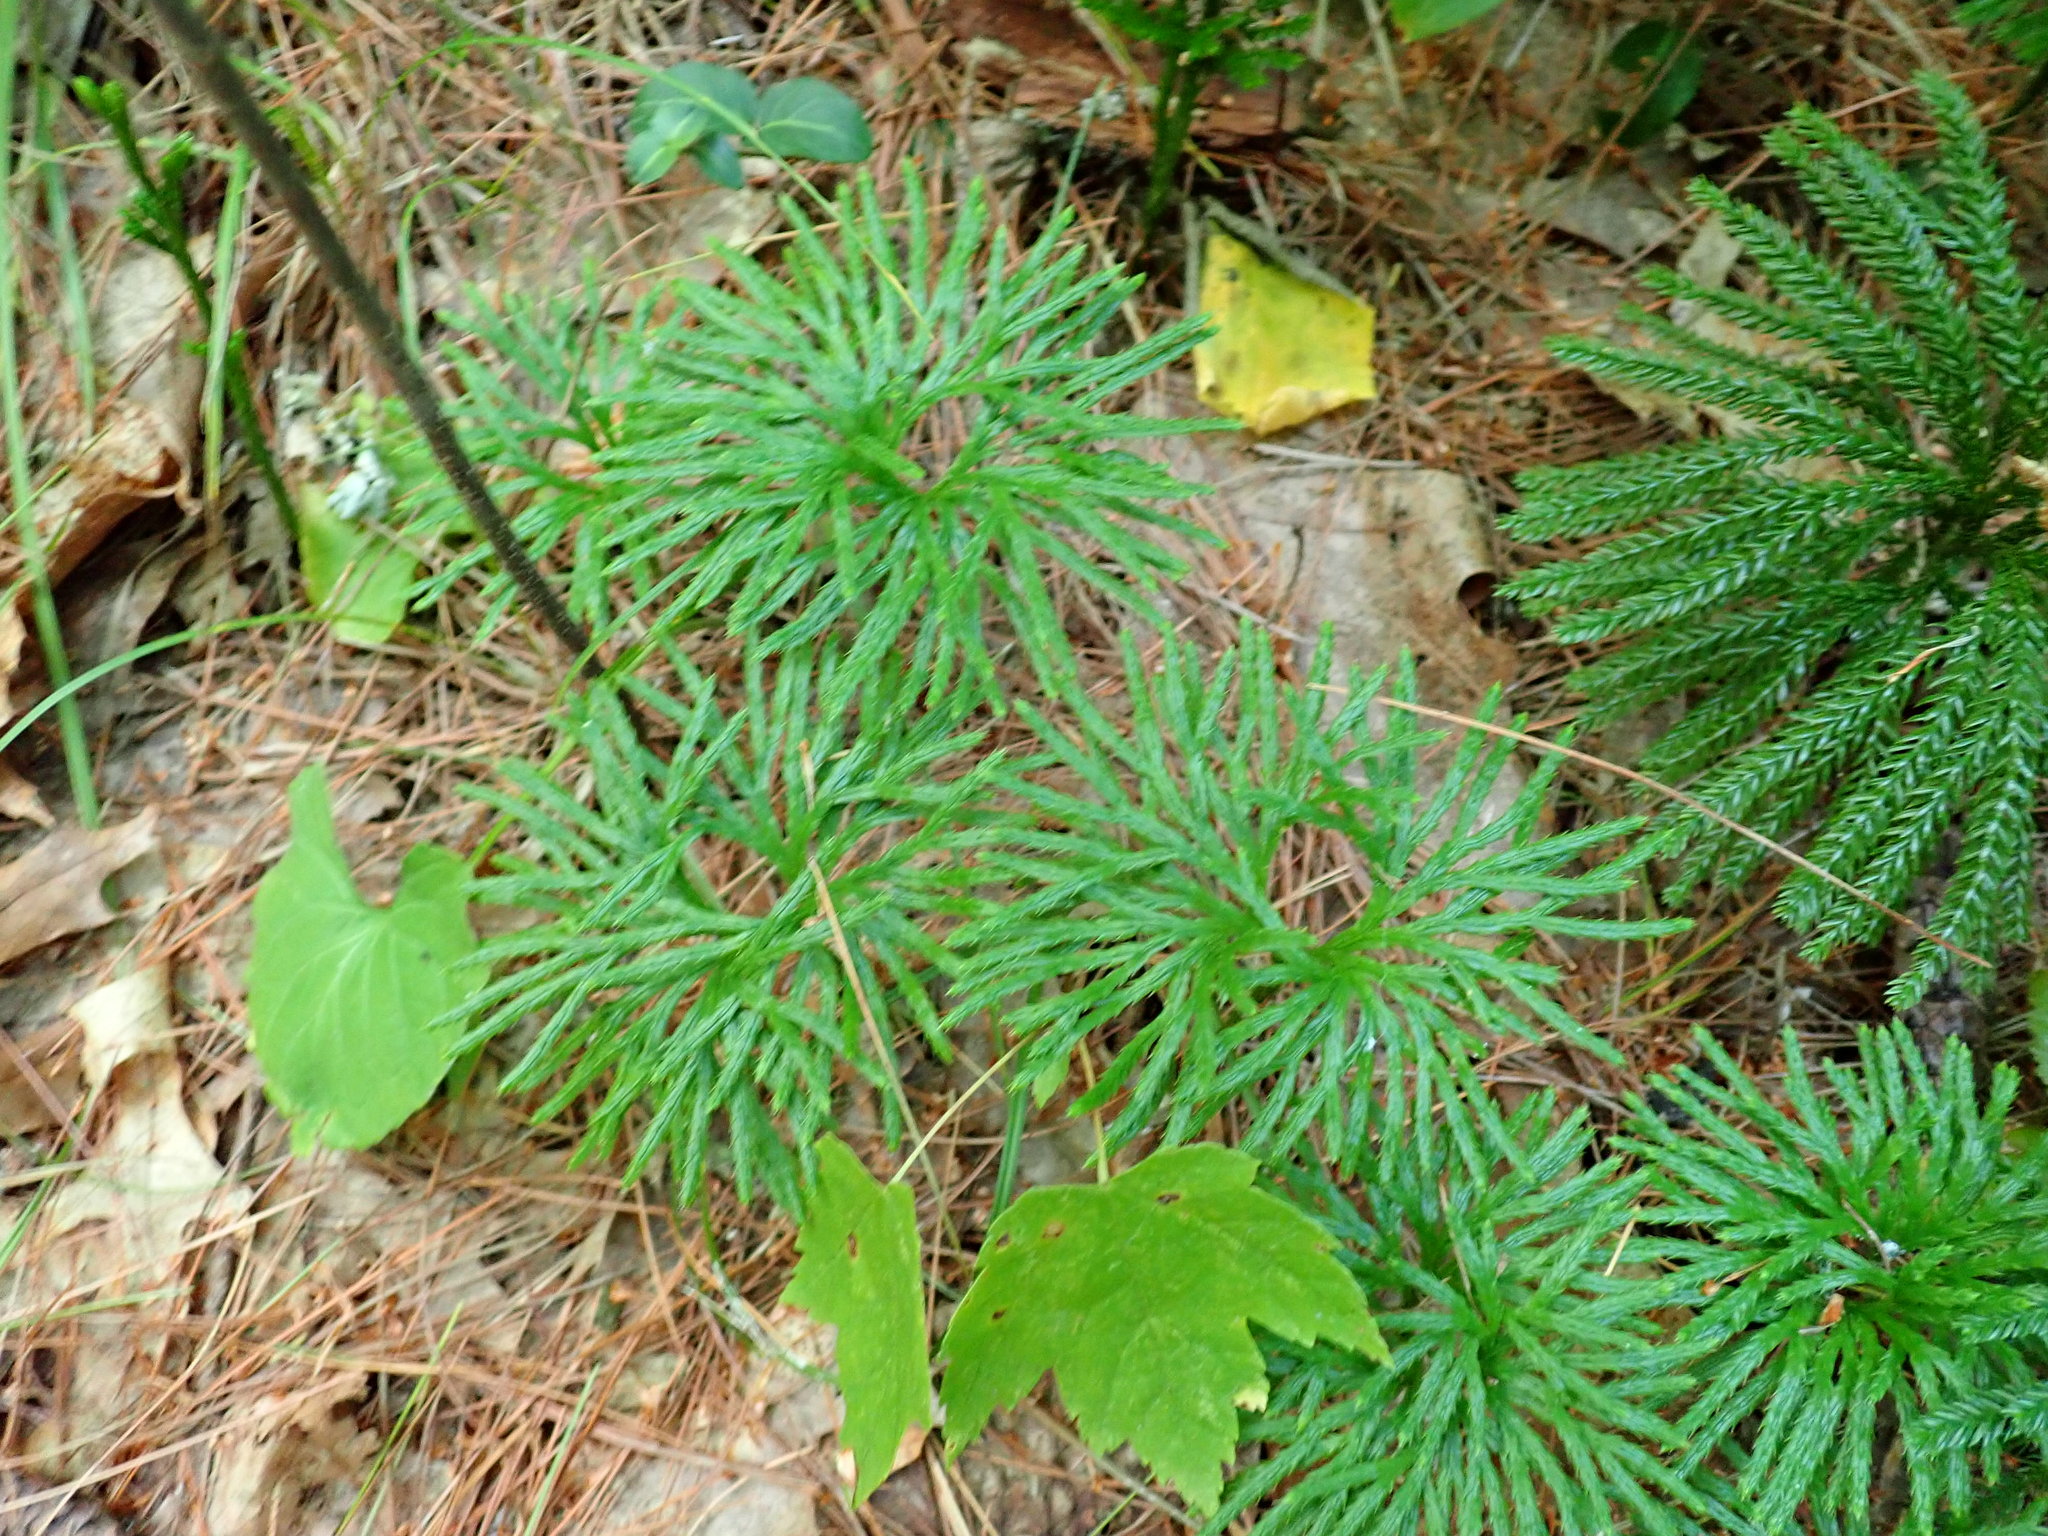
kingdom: Plantae
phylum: Tracheophyta
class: Lycopodiopsida
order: Lycopodiales
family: Lycopodiaceae
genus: Diphasiastrum
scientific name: Diphasiastrum digitatum
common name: Southern running-pine
